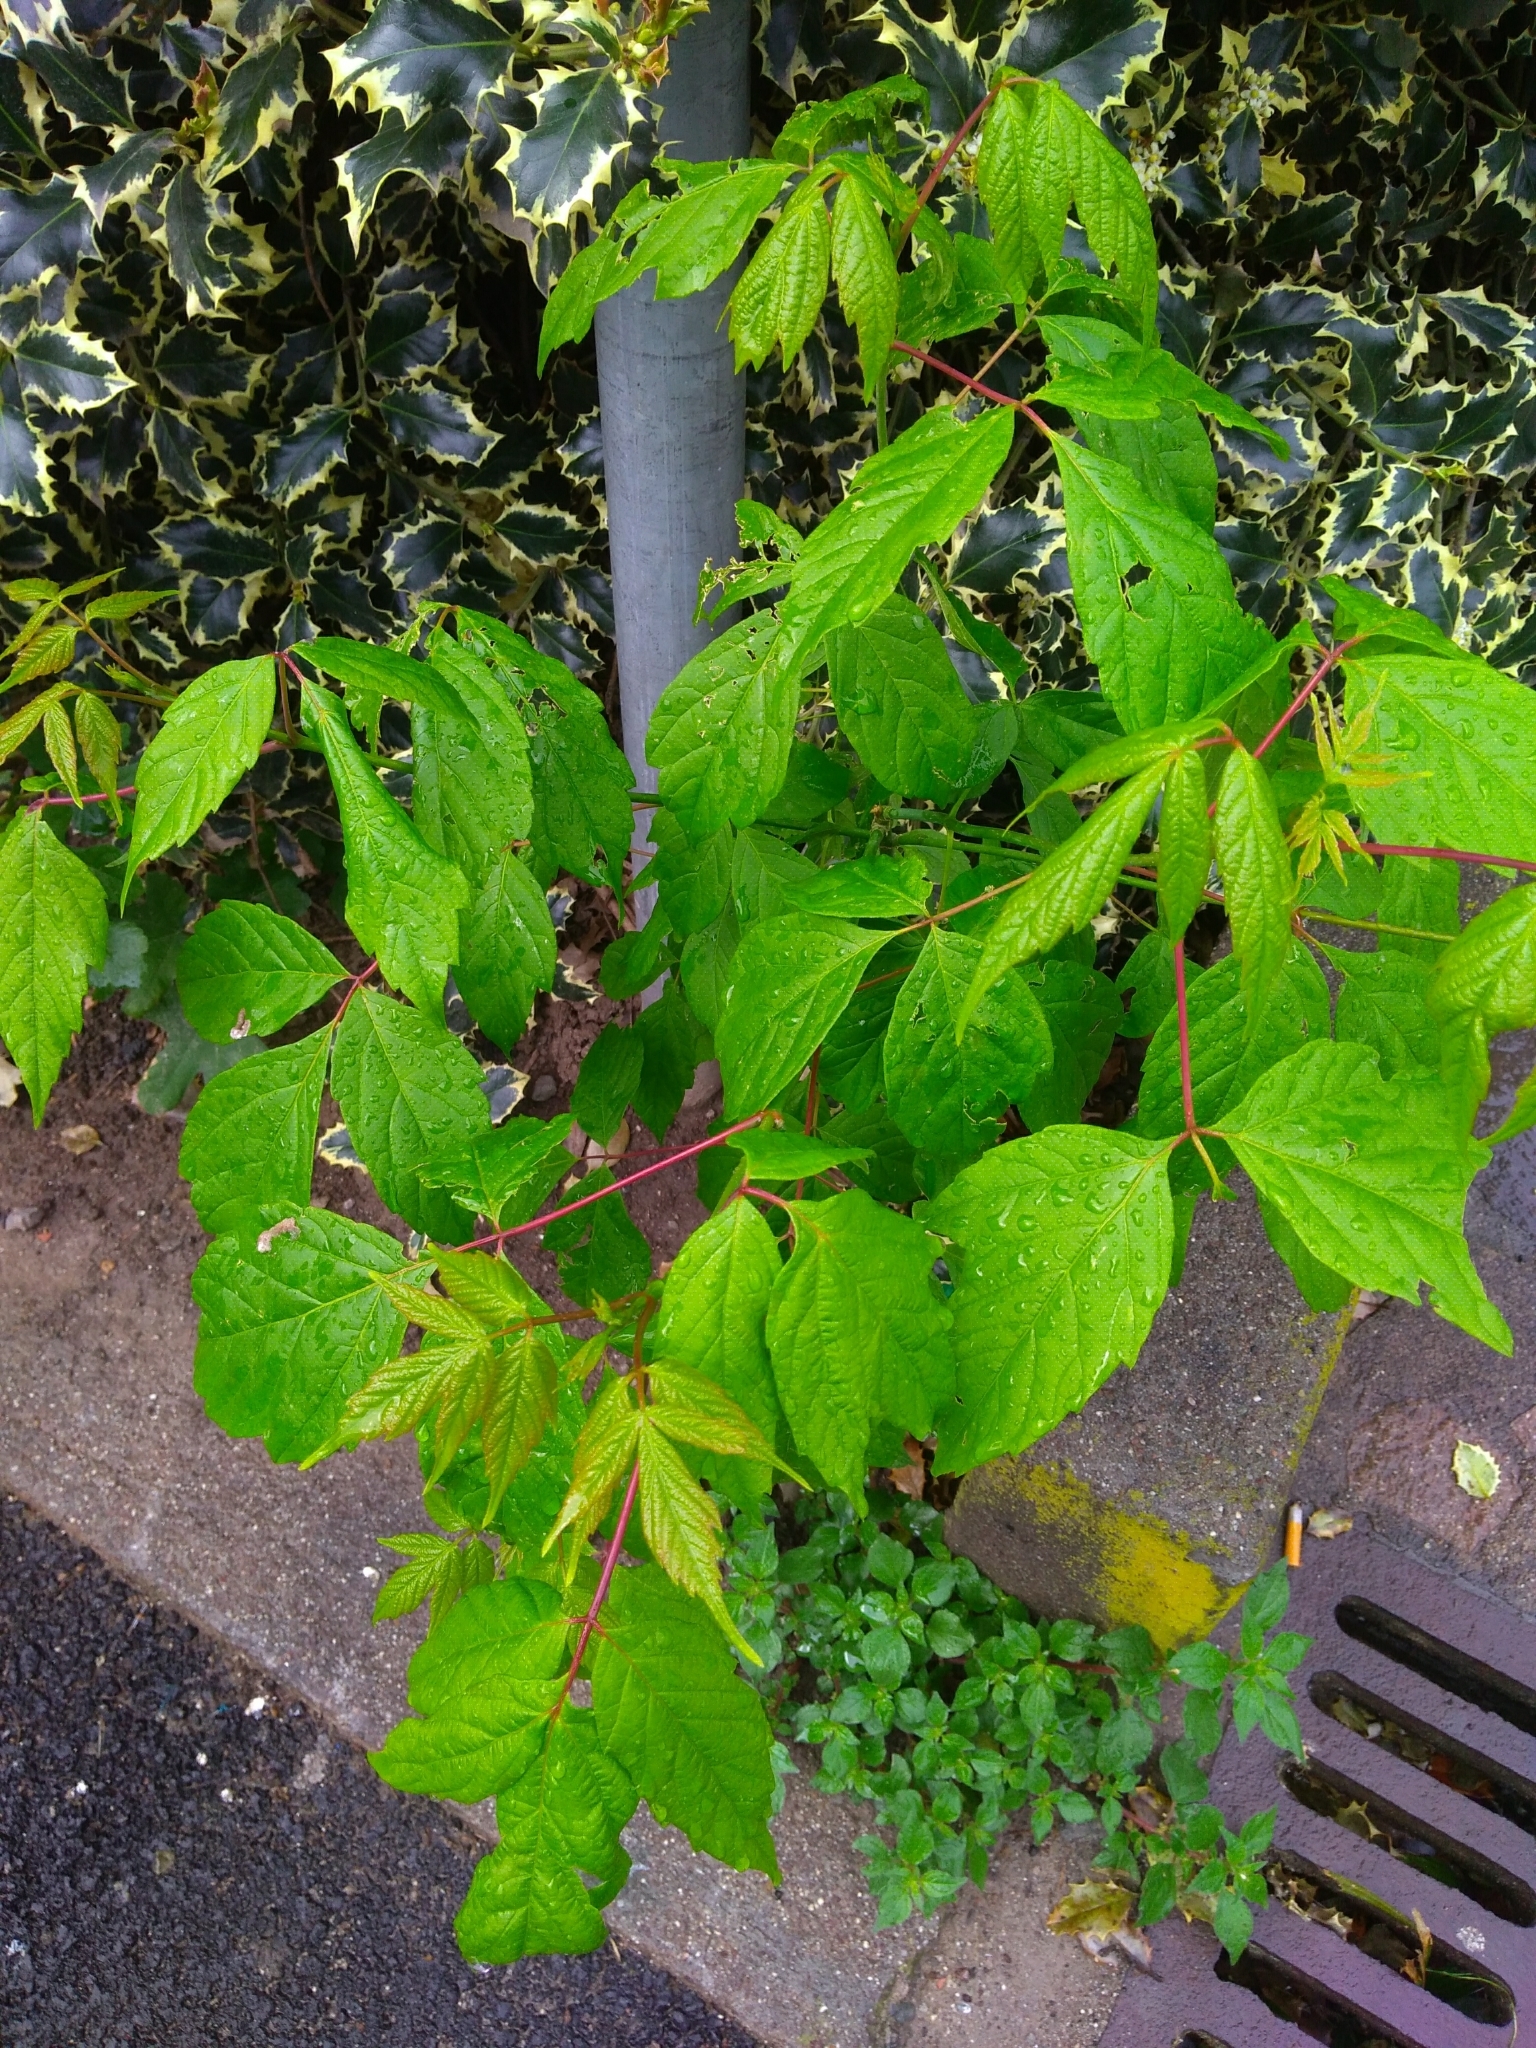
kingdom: Plantae
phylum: Tracheophyta
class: Magnoliopsida
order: Sapindales
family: Sapindaceae
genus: Acer
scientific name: Acer negundo
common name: Ashleaf maple
